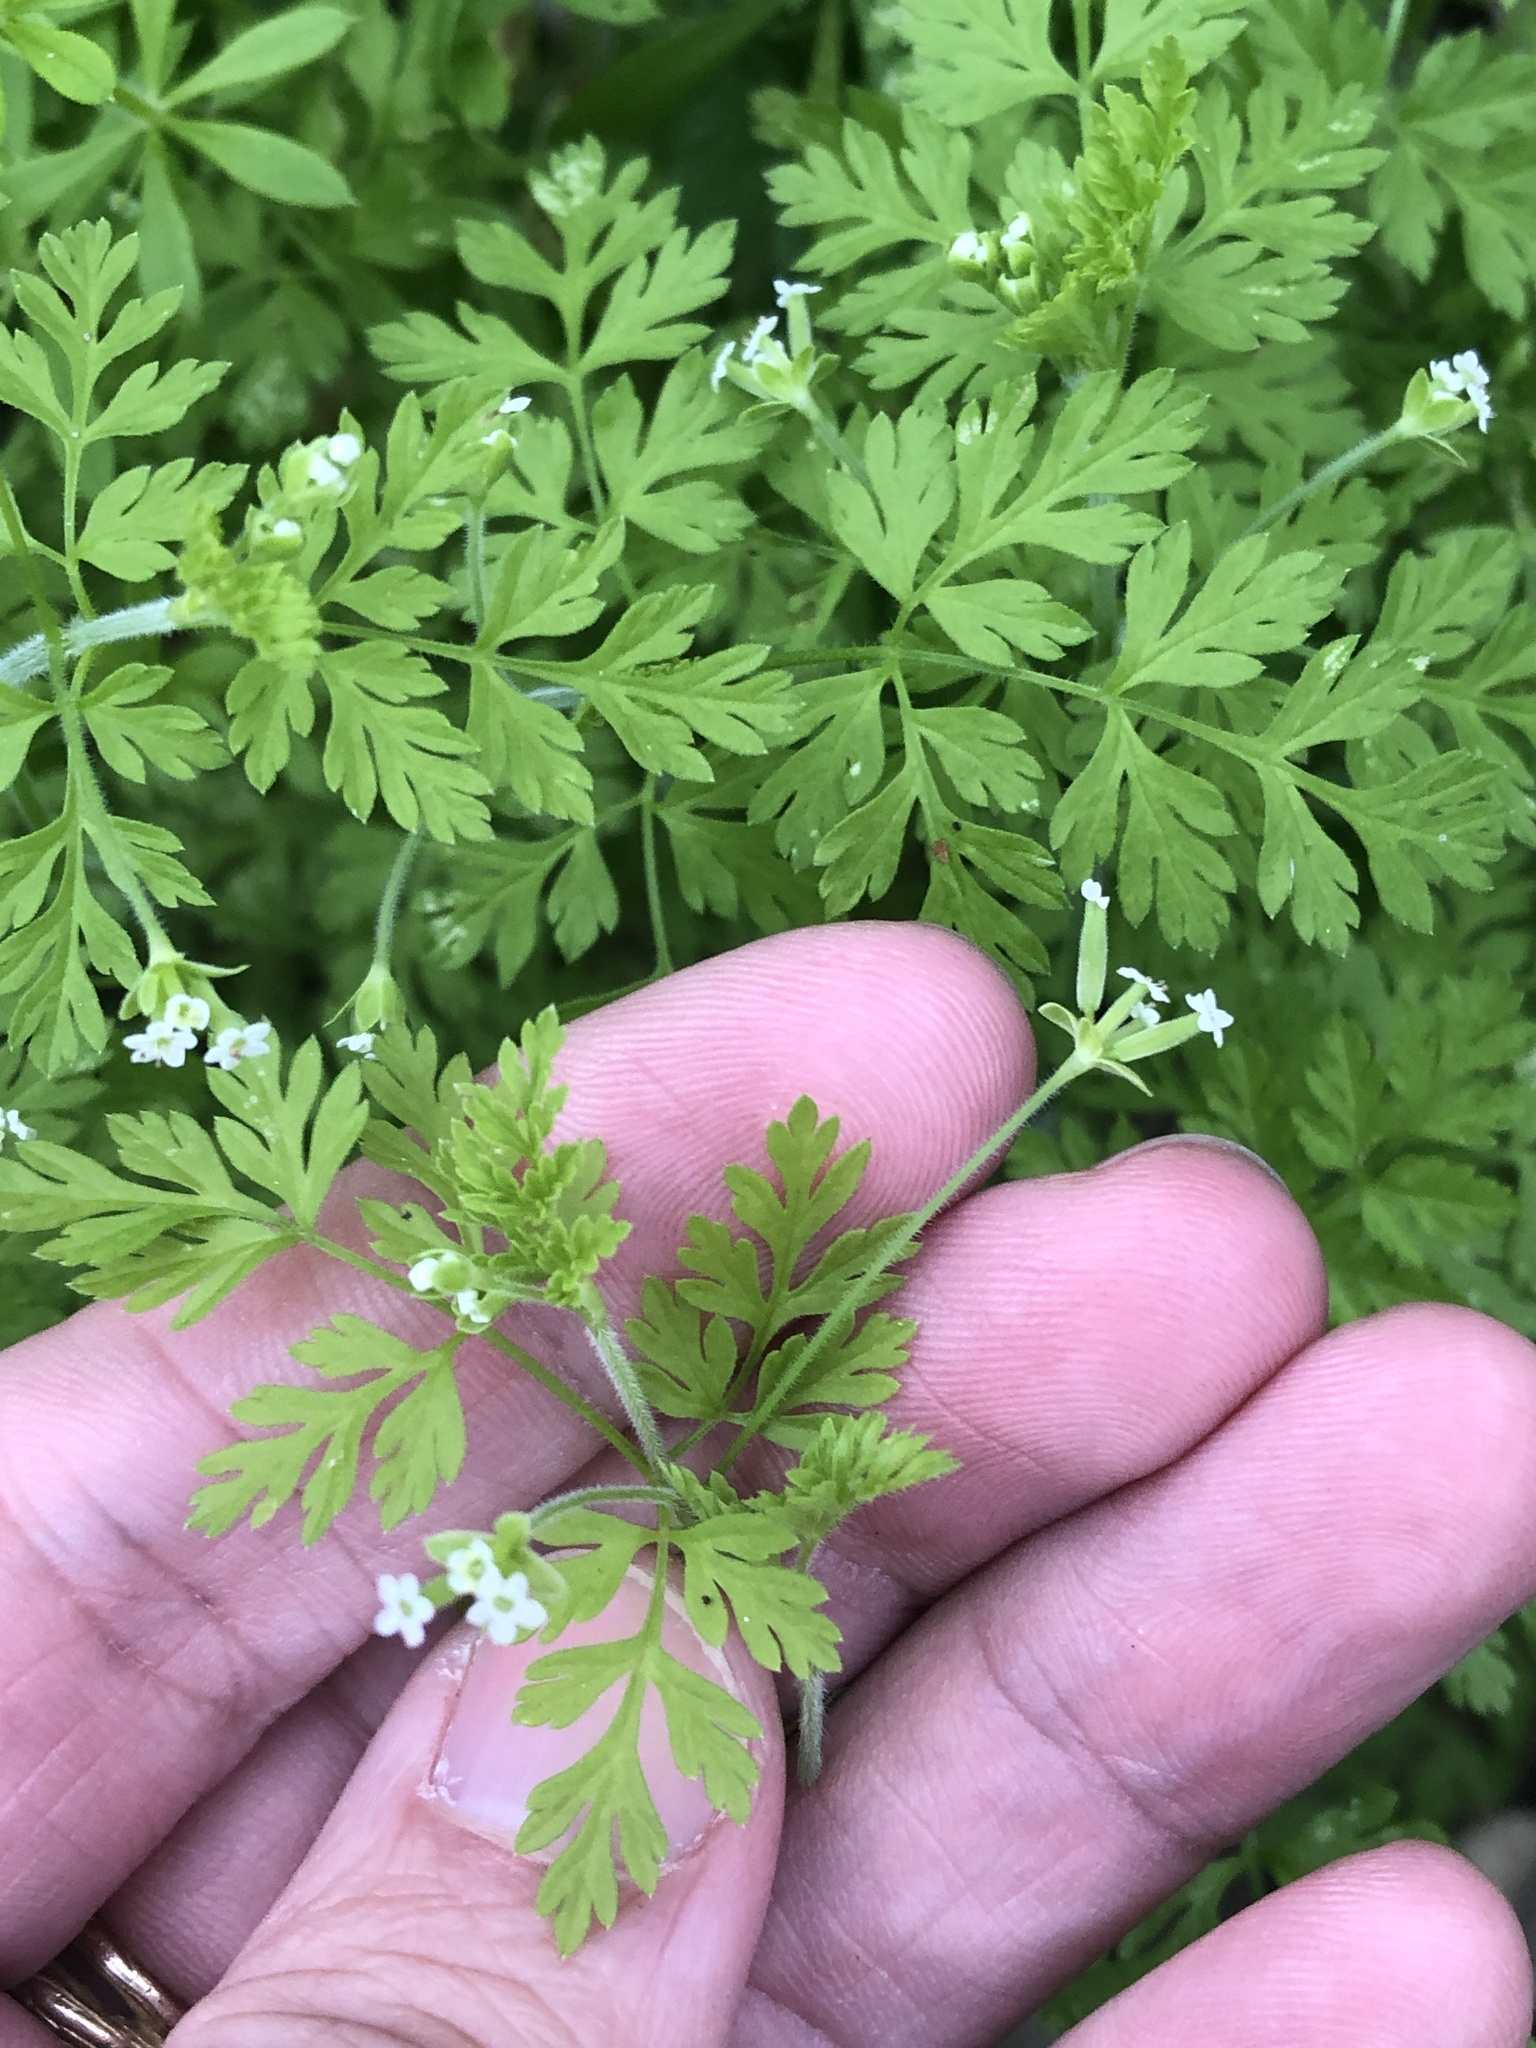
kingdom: Plantae
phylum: Tracheophyta
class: Magnoliopsida
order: Apiales
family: Apiaceae
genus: Chaerophyllum
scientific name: Chaerophyllum tainturieri
